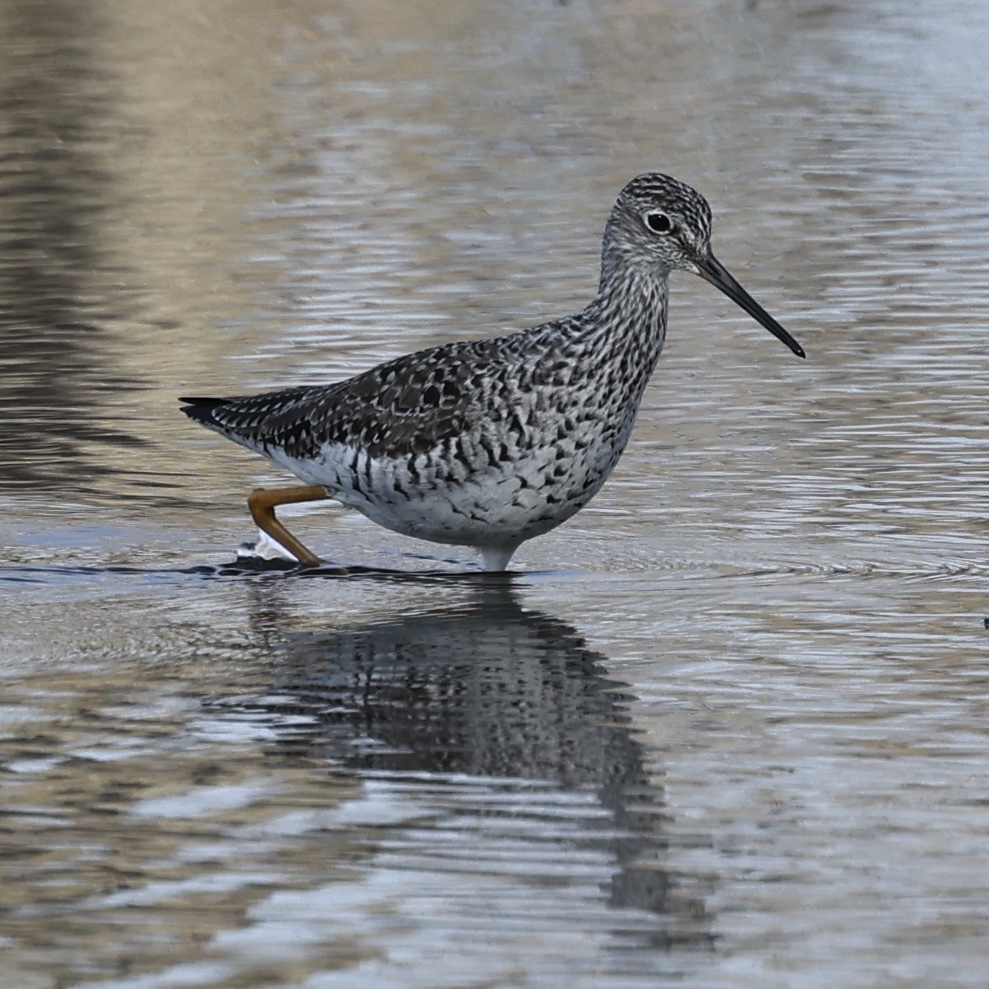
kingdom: Animalia
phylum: Chordata
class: Aves
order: Charadriiformes
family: Scolopacidae
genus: Tringa
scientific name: Tringa melanoleuca
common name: Greater yellowlegs
